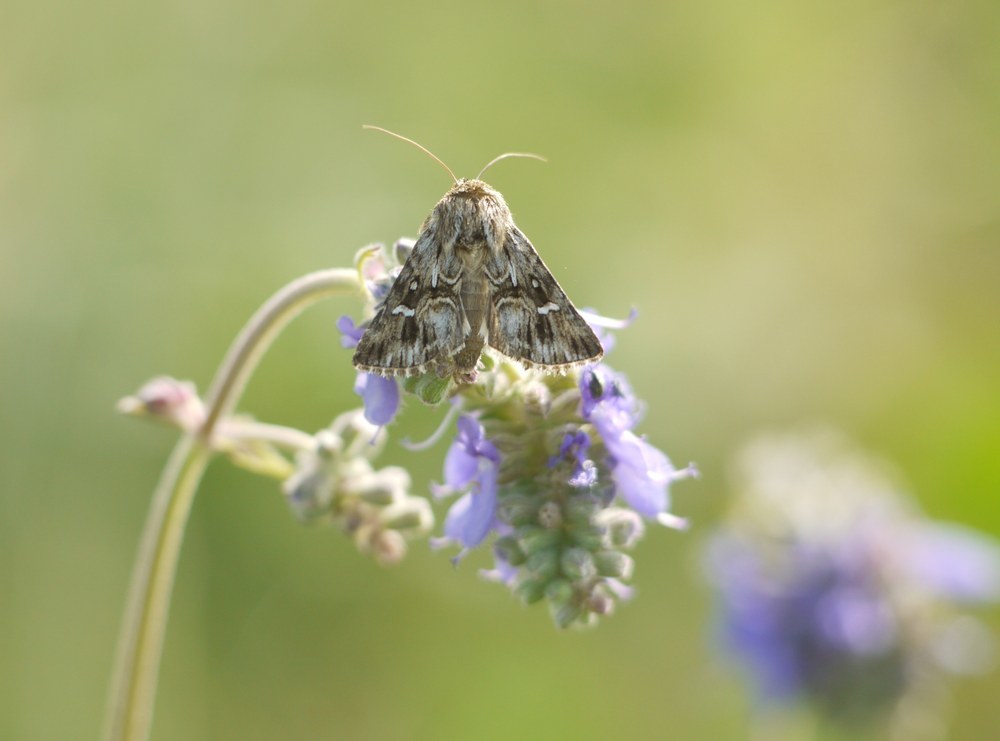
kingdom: Animalia
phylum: Arthropoda
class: Insecta
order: Lepidoptera
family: Noctuidae
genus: Calophasia
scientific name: Calophasia lunula
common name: Toadflax brocade
